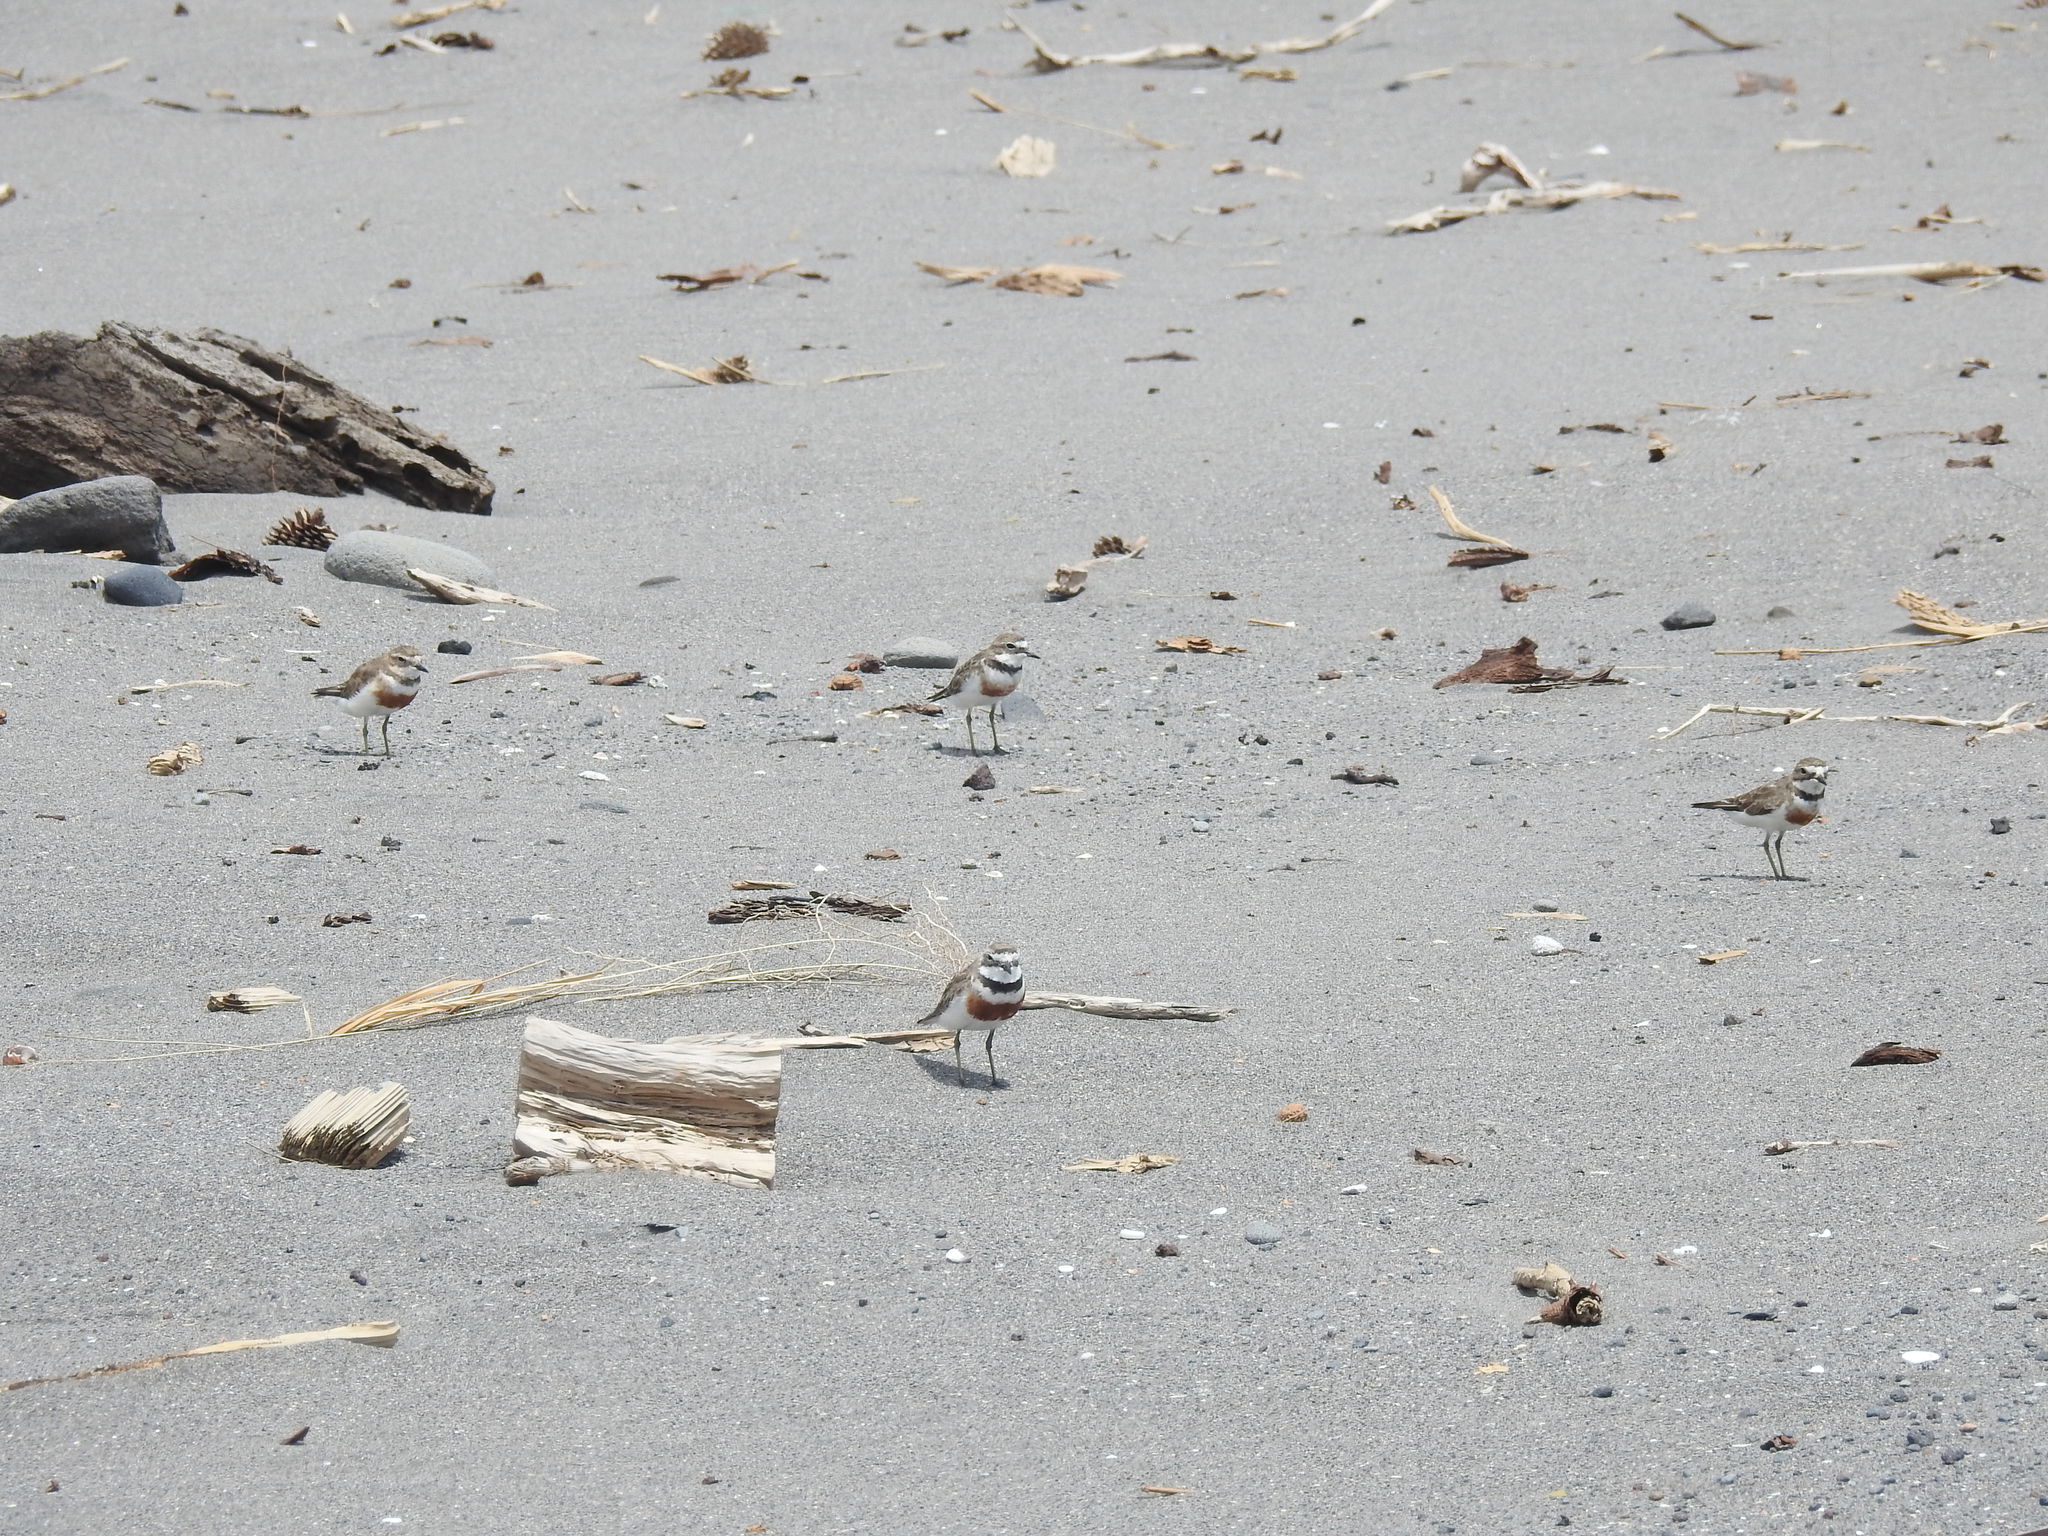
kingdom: Animalia
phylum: Chordata
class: Aves
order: Charadriiformes
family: Charadriidae
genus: Anarhynchus
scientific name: Anarhynchus
